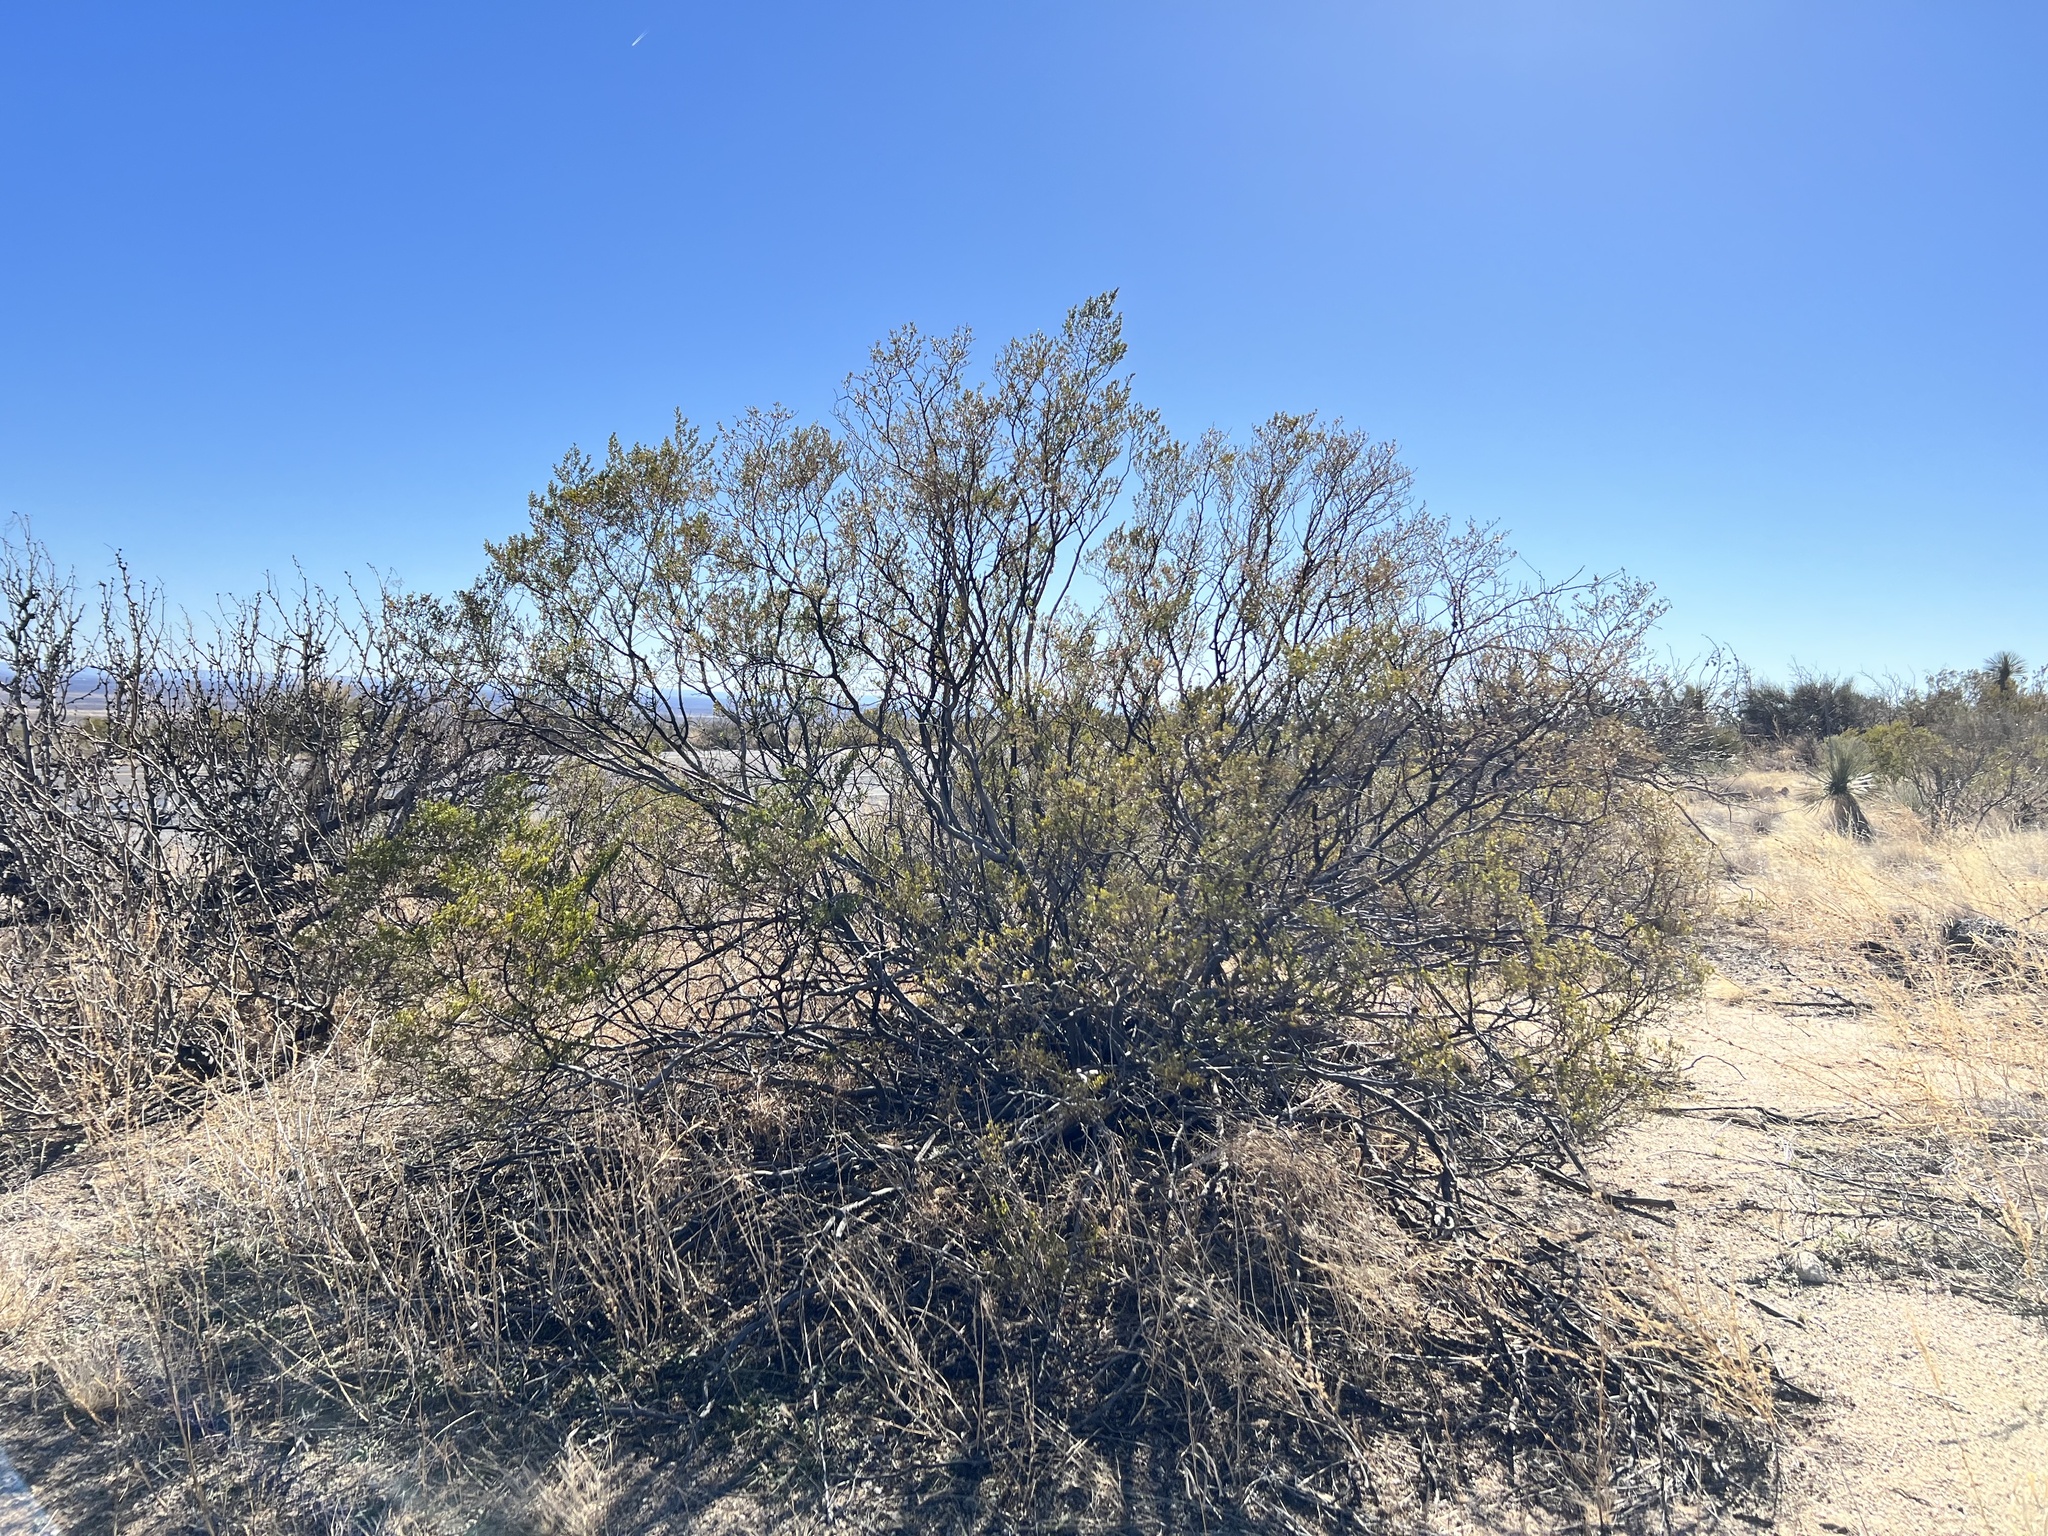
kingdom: Plantae
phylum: Tracheophyta
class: Magnoliopsida
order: Zygophyllales
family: Zygophyllaceae
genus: Larrea
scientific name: Larrea tridentata
